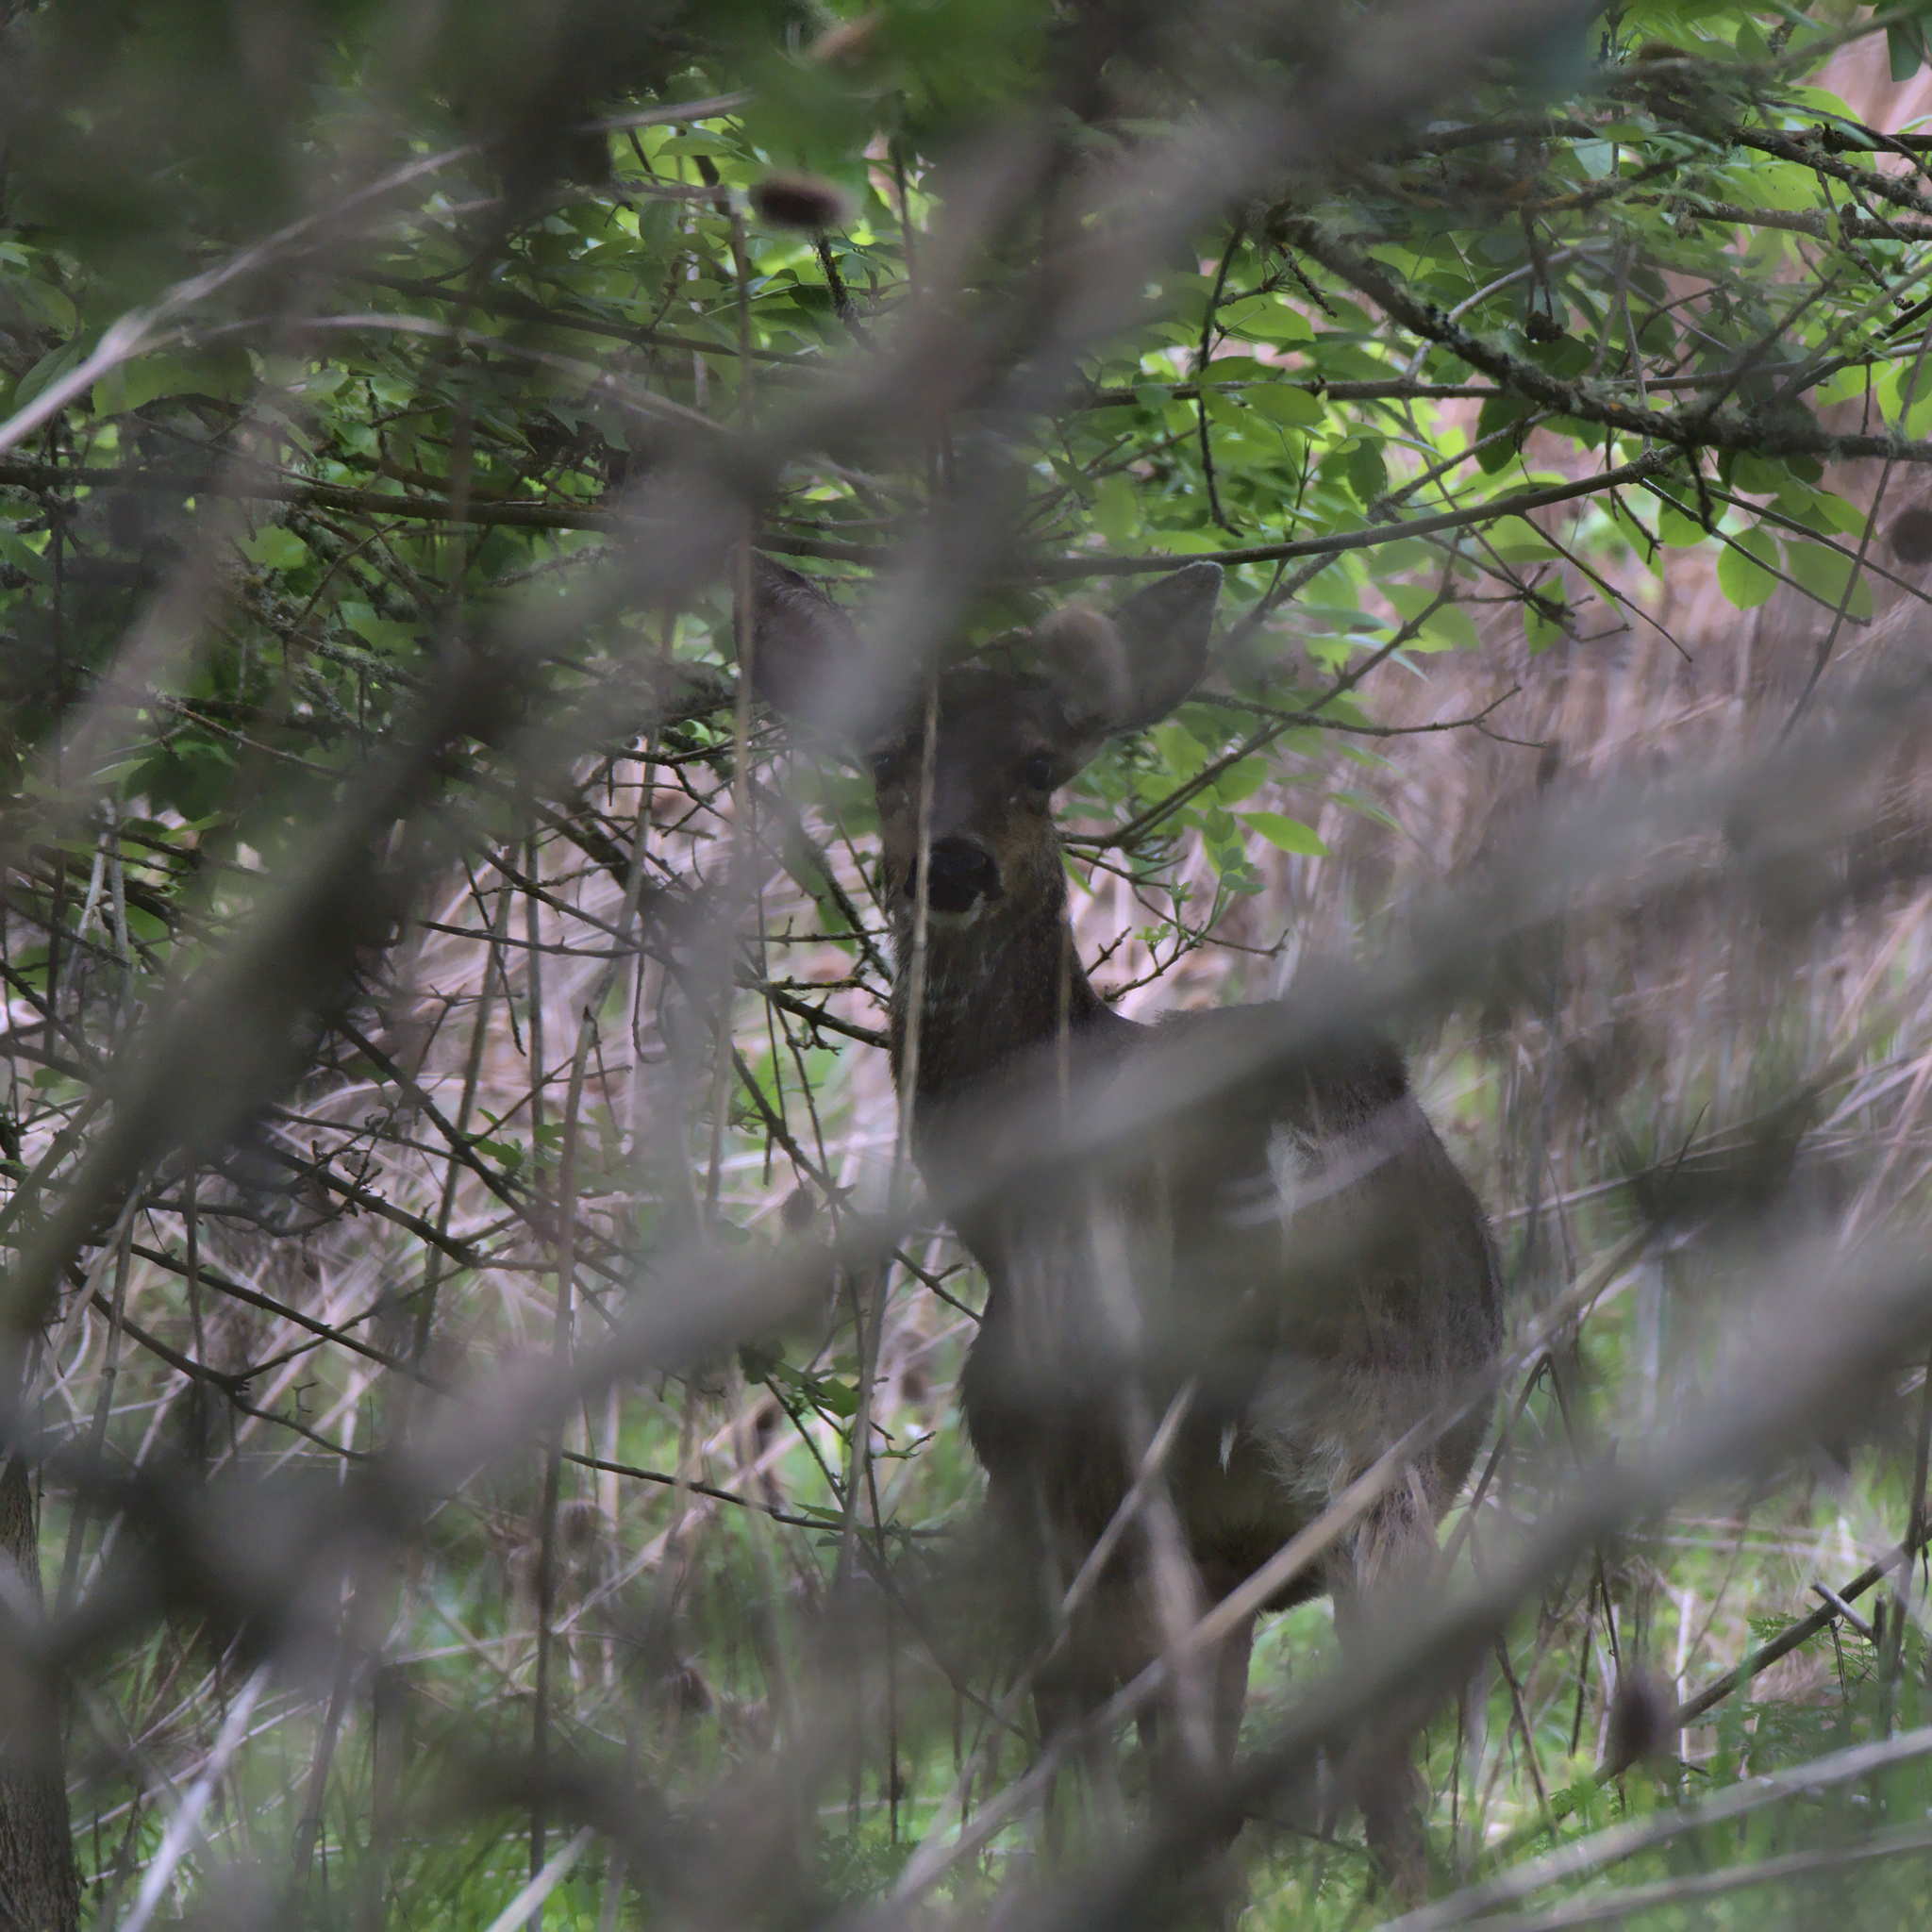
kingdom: Animalia
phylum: Chordata
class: Mammalia
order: Artiodactyla
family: Cervidae
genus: Odocoileus
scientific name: Odocoileus hemionus
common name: Mule deer
